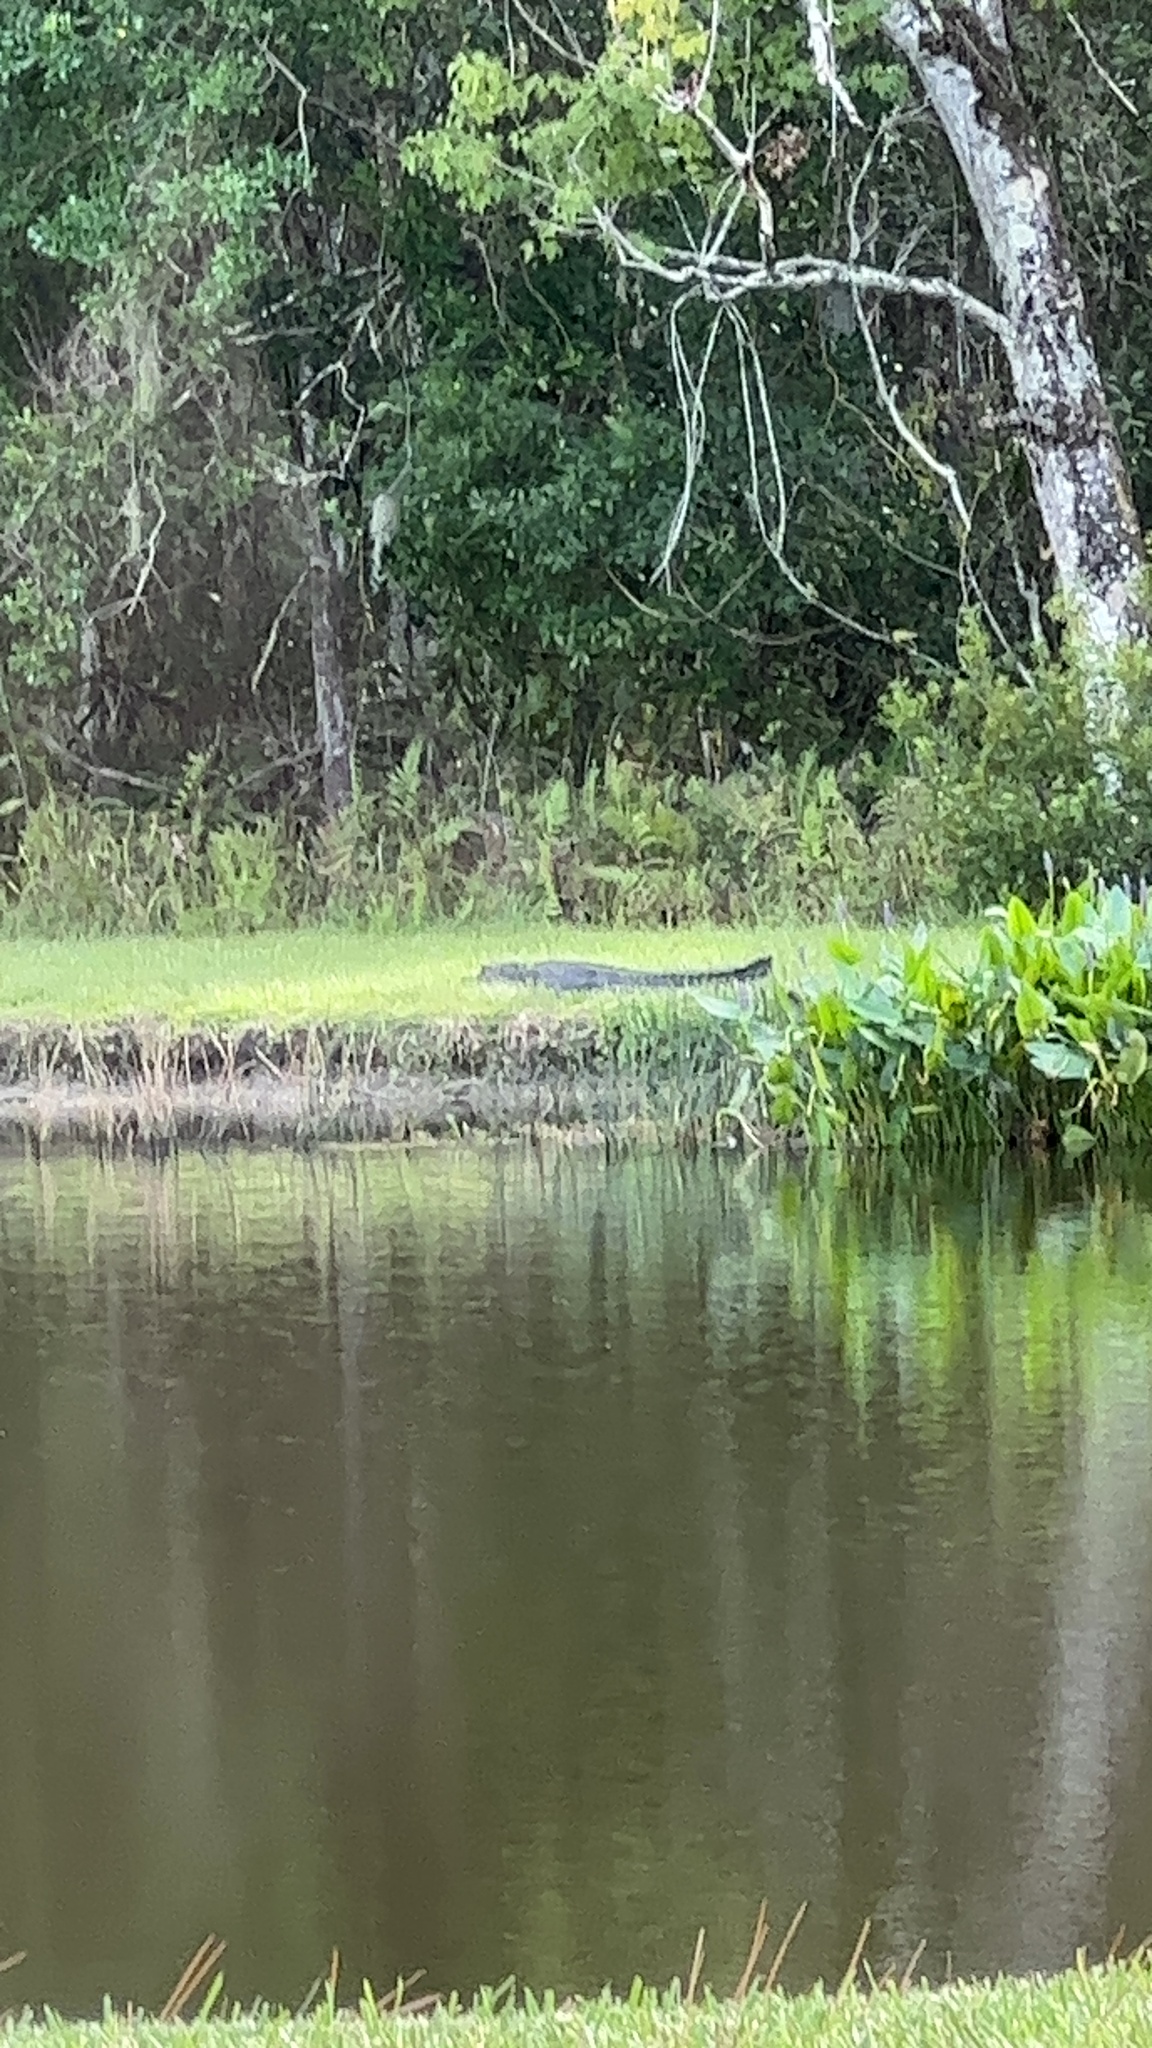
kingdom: Animalia
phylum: Chordata
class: Crocodylia
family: Alligatoridae
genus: Alligator
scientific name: Alligator mississippiensis
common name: American alligator
